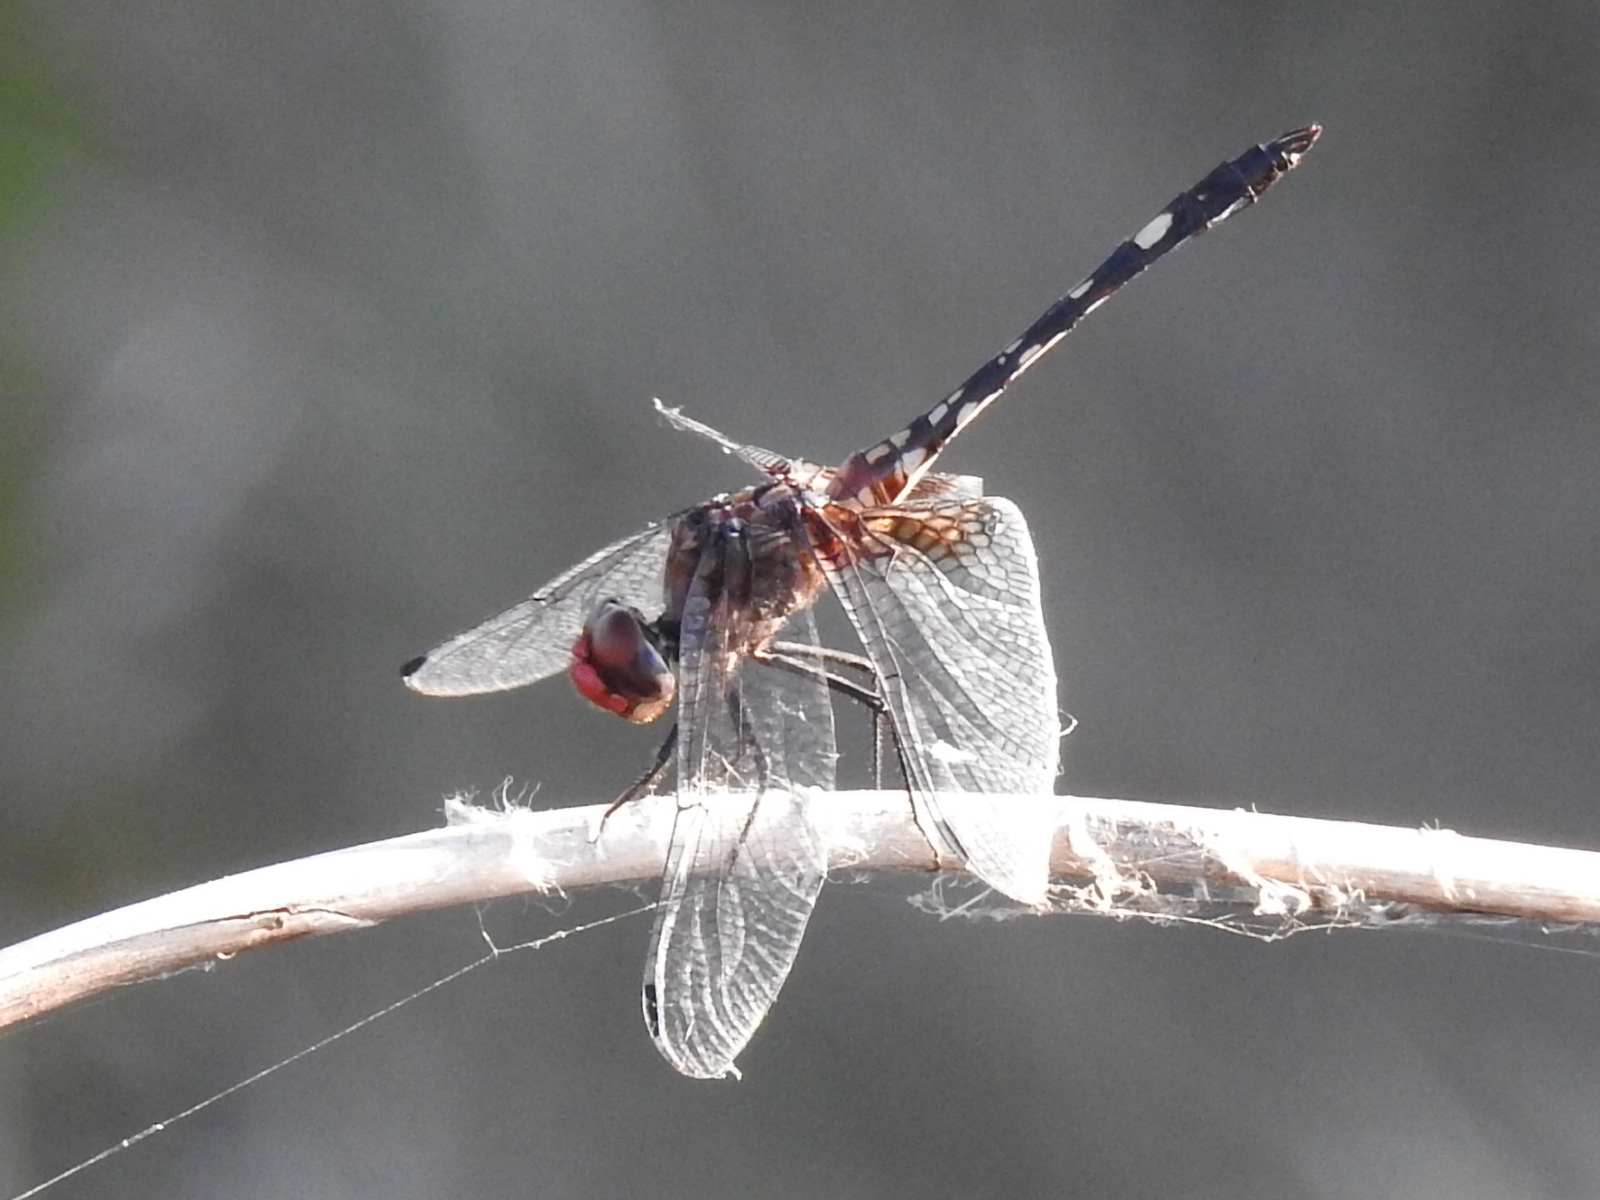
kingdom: Animalia
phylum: Arthropoda
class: Insecta
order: Odonata
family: Libellulidae
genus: Dythemis
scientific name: Dythemis fugax
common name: Checkered setwing
